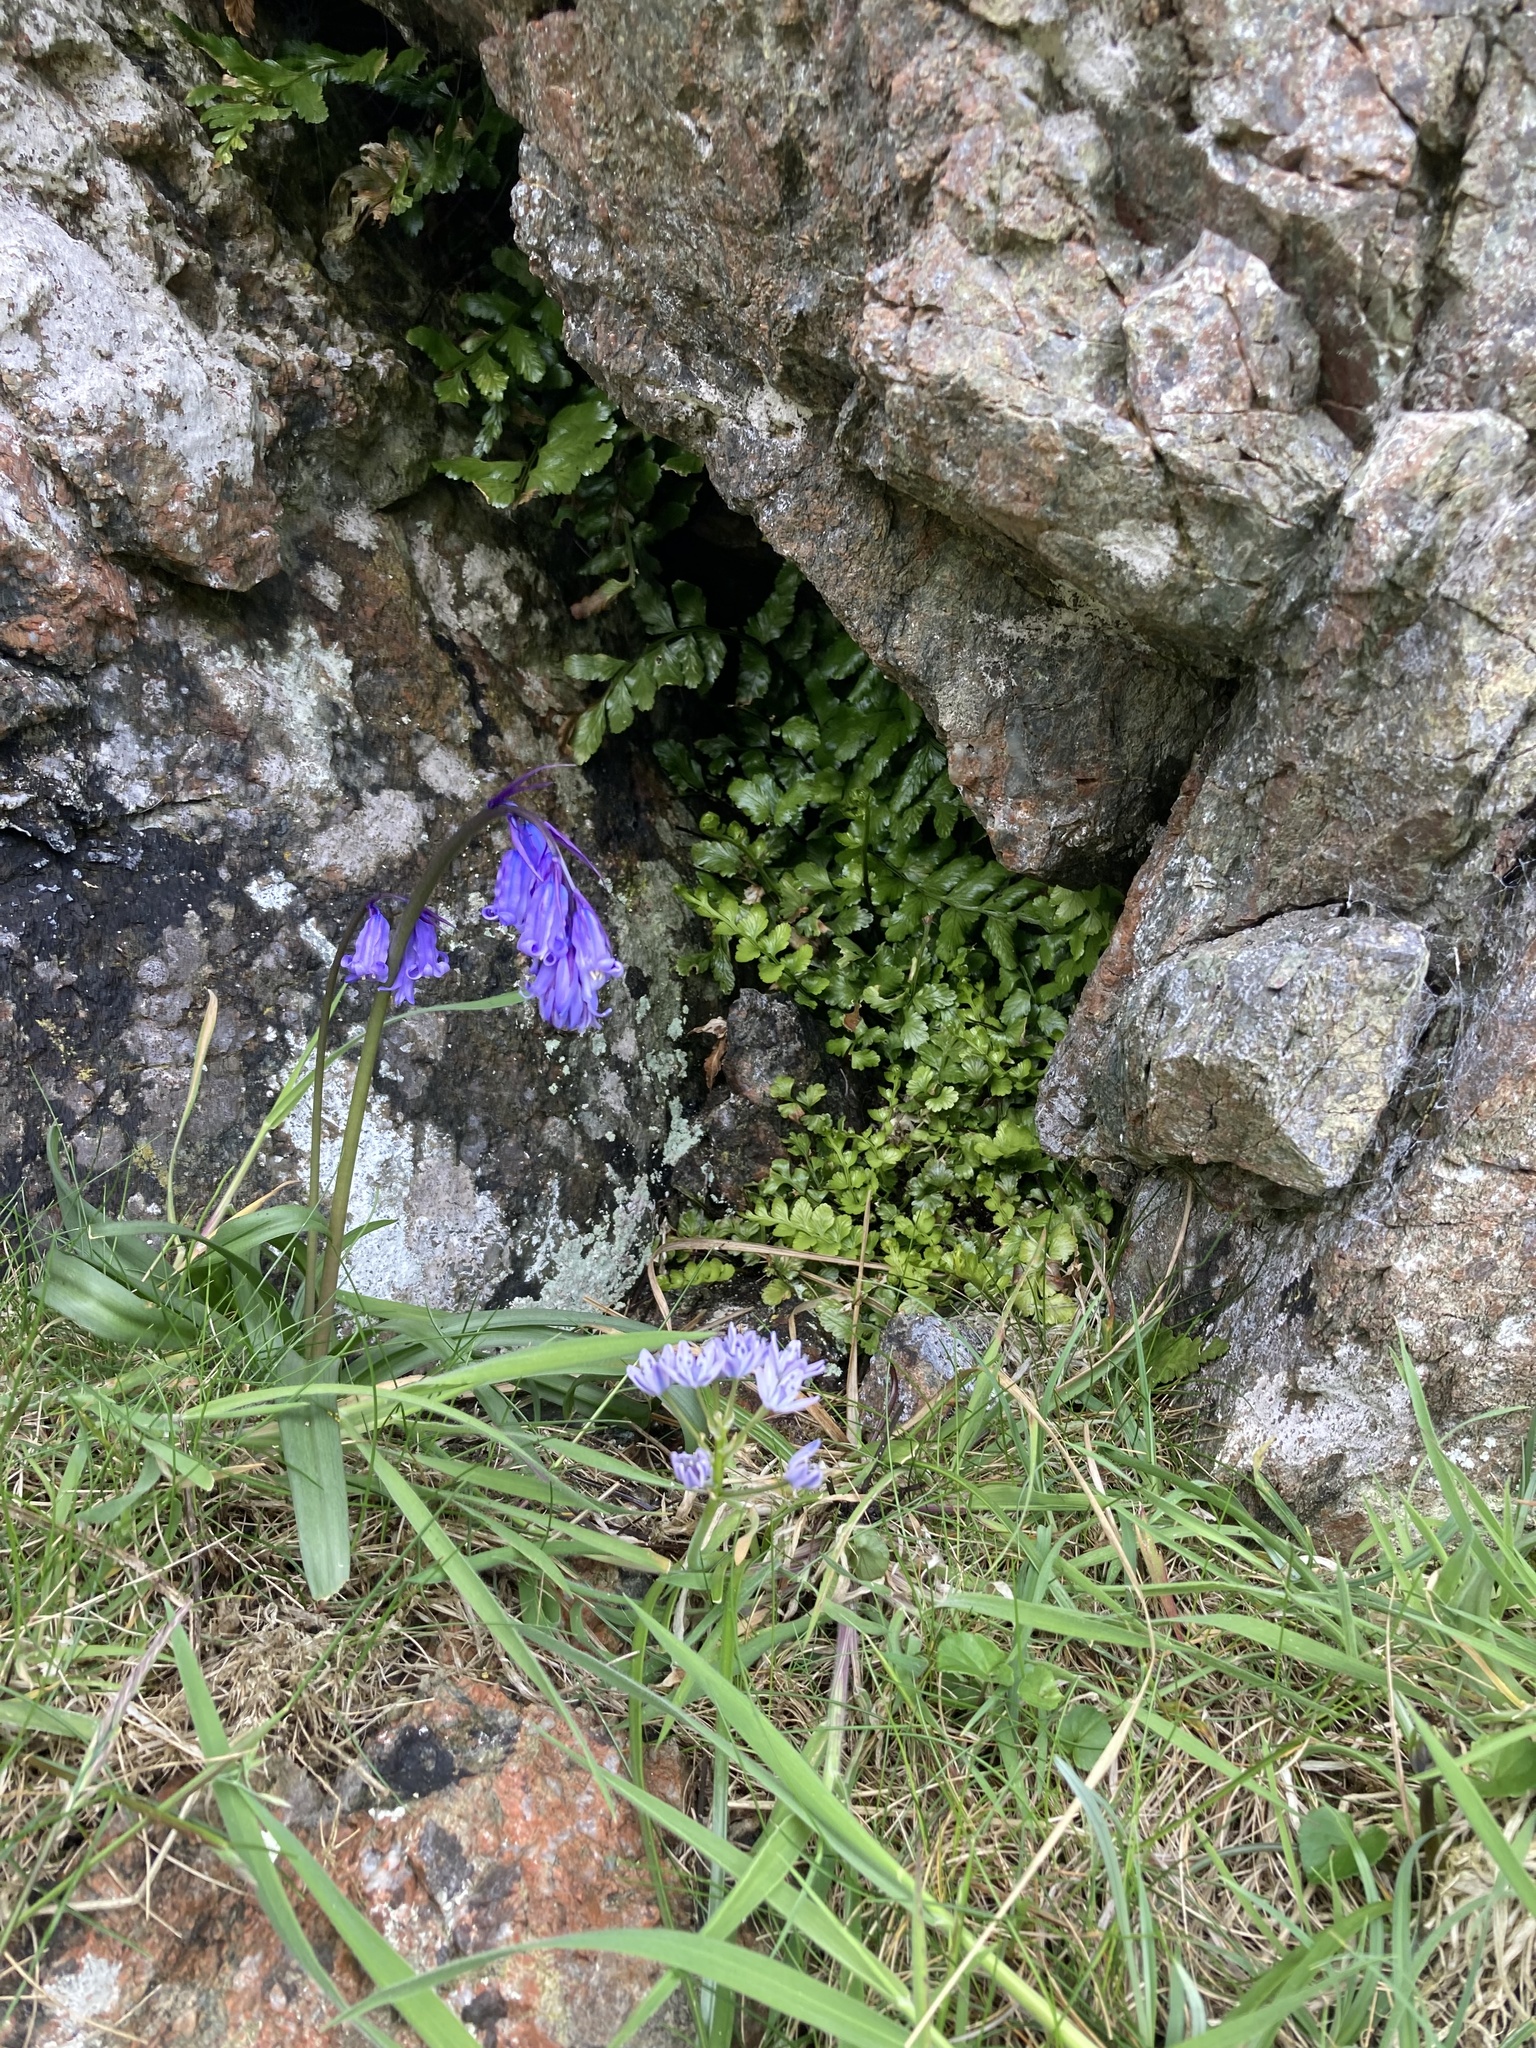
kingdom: Plantae
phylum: Tracheophyta
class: Liliopsida
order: Asparagales
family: Asparagaceae
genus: Hyacinthoides
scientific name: Hyacinthoides non-scripta
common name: Bluebell
